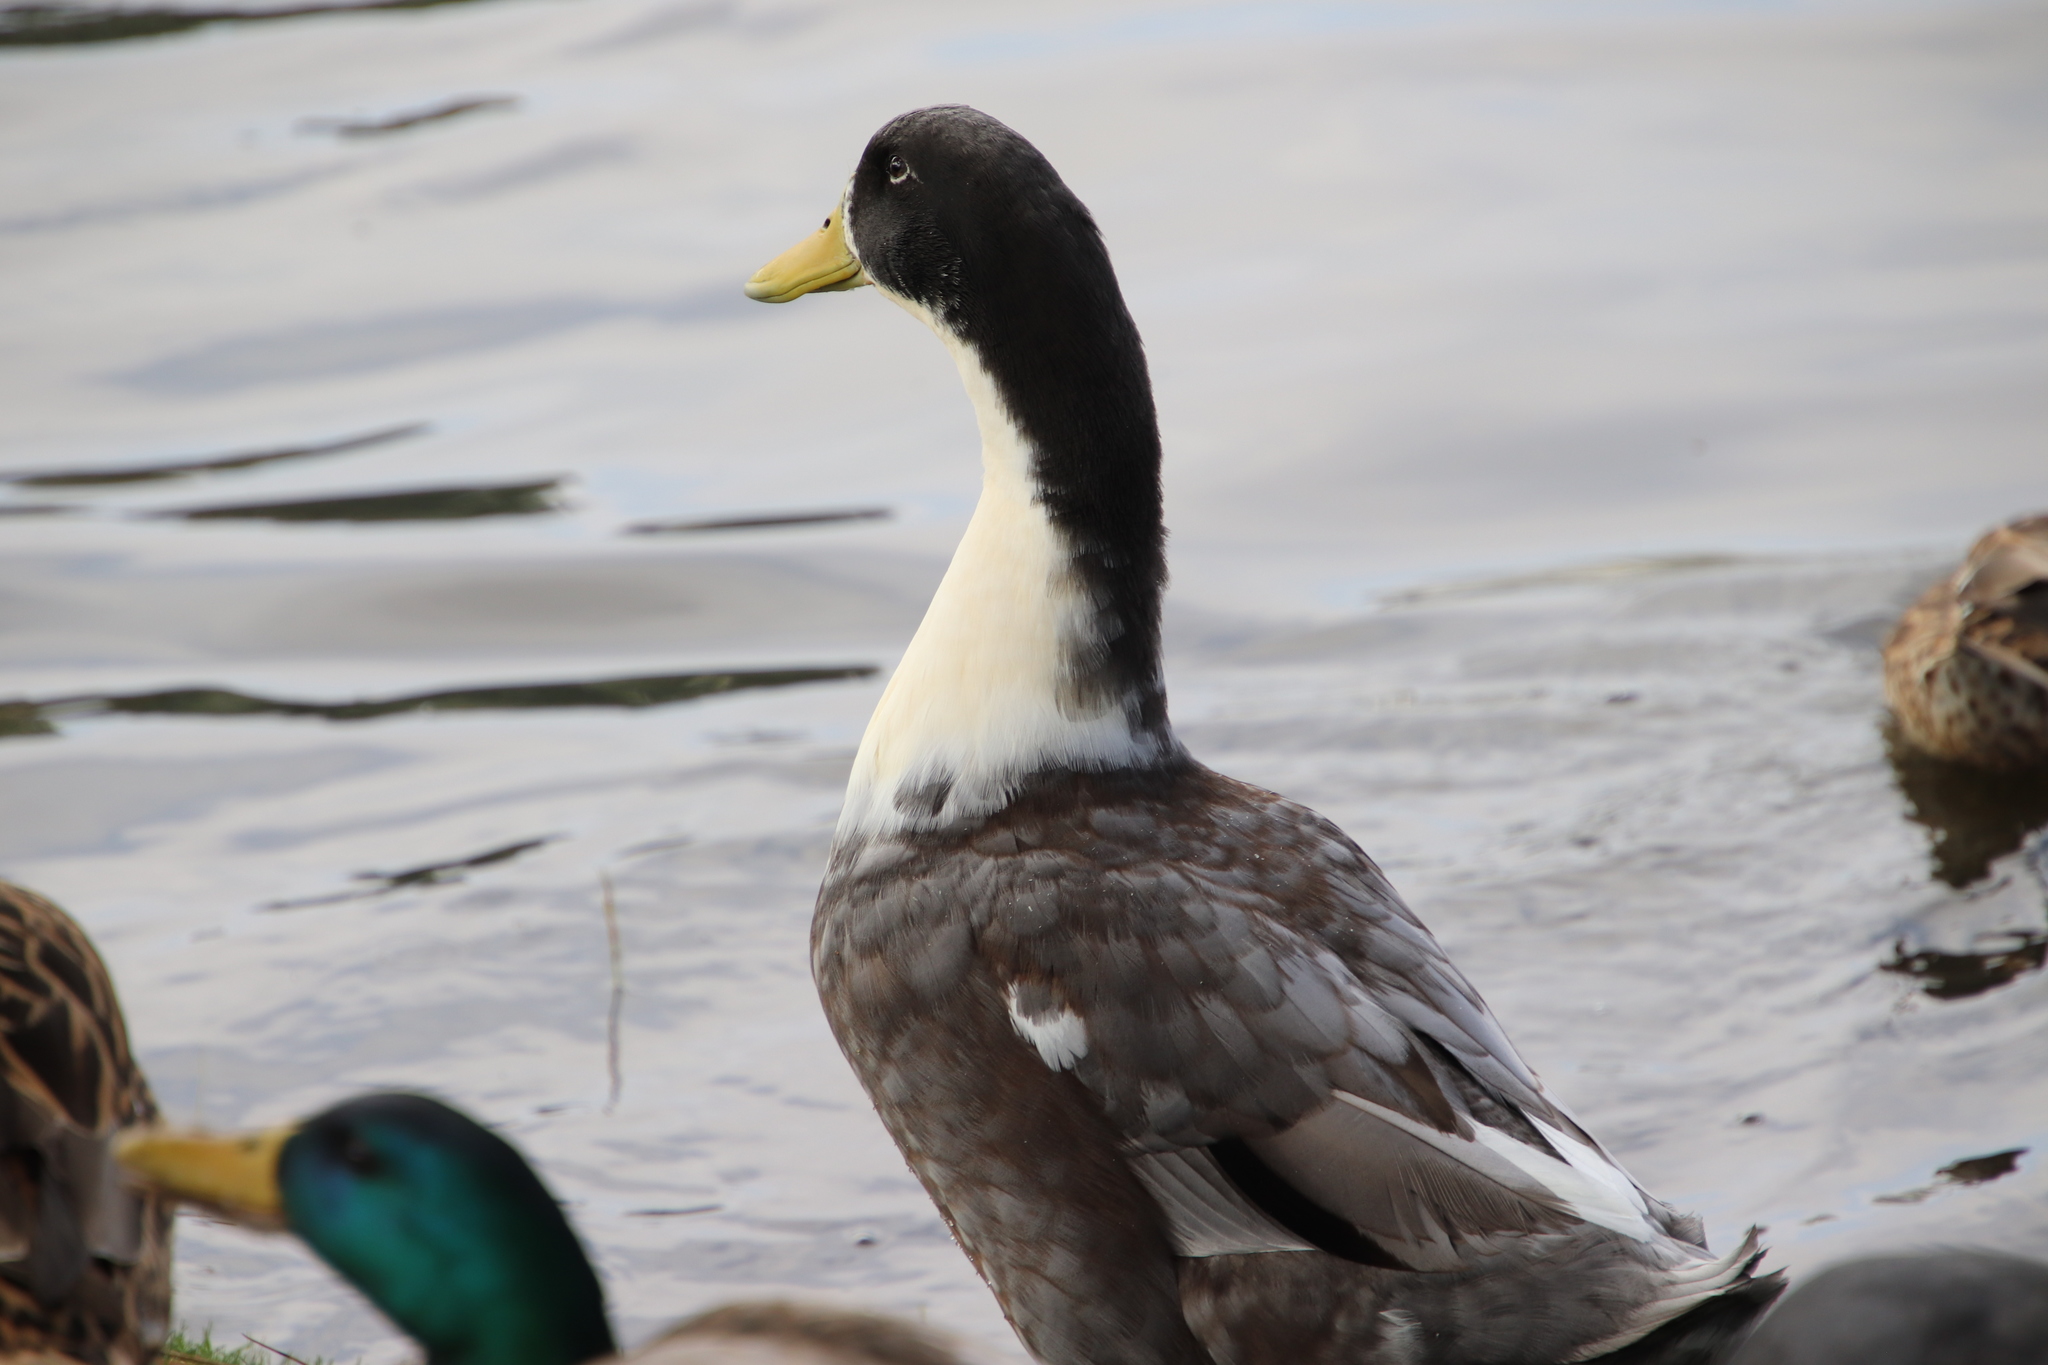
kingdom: Animalia
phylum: Chordata
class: Aves
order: Anseriformes
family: Anatidae
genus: Anas
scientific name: Anas platyrhynchos
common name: Mallard
